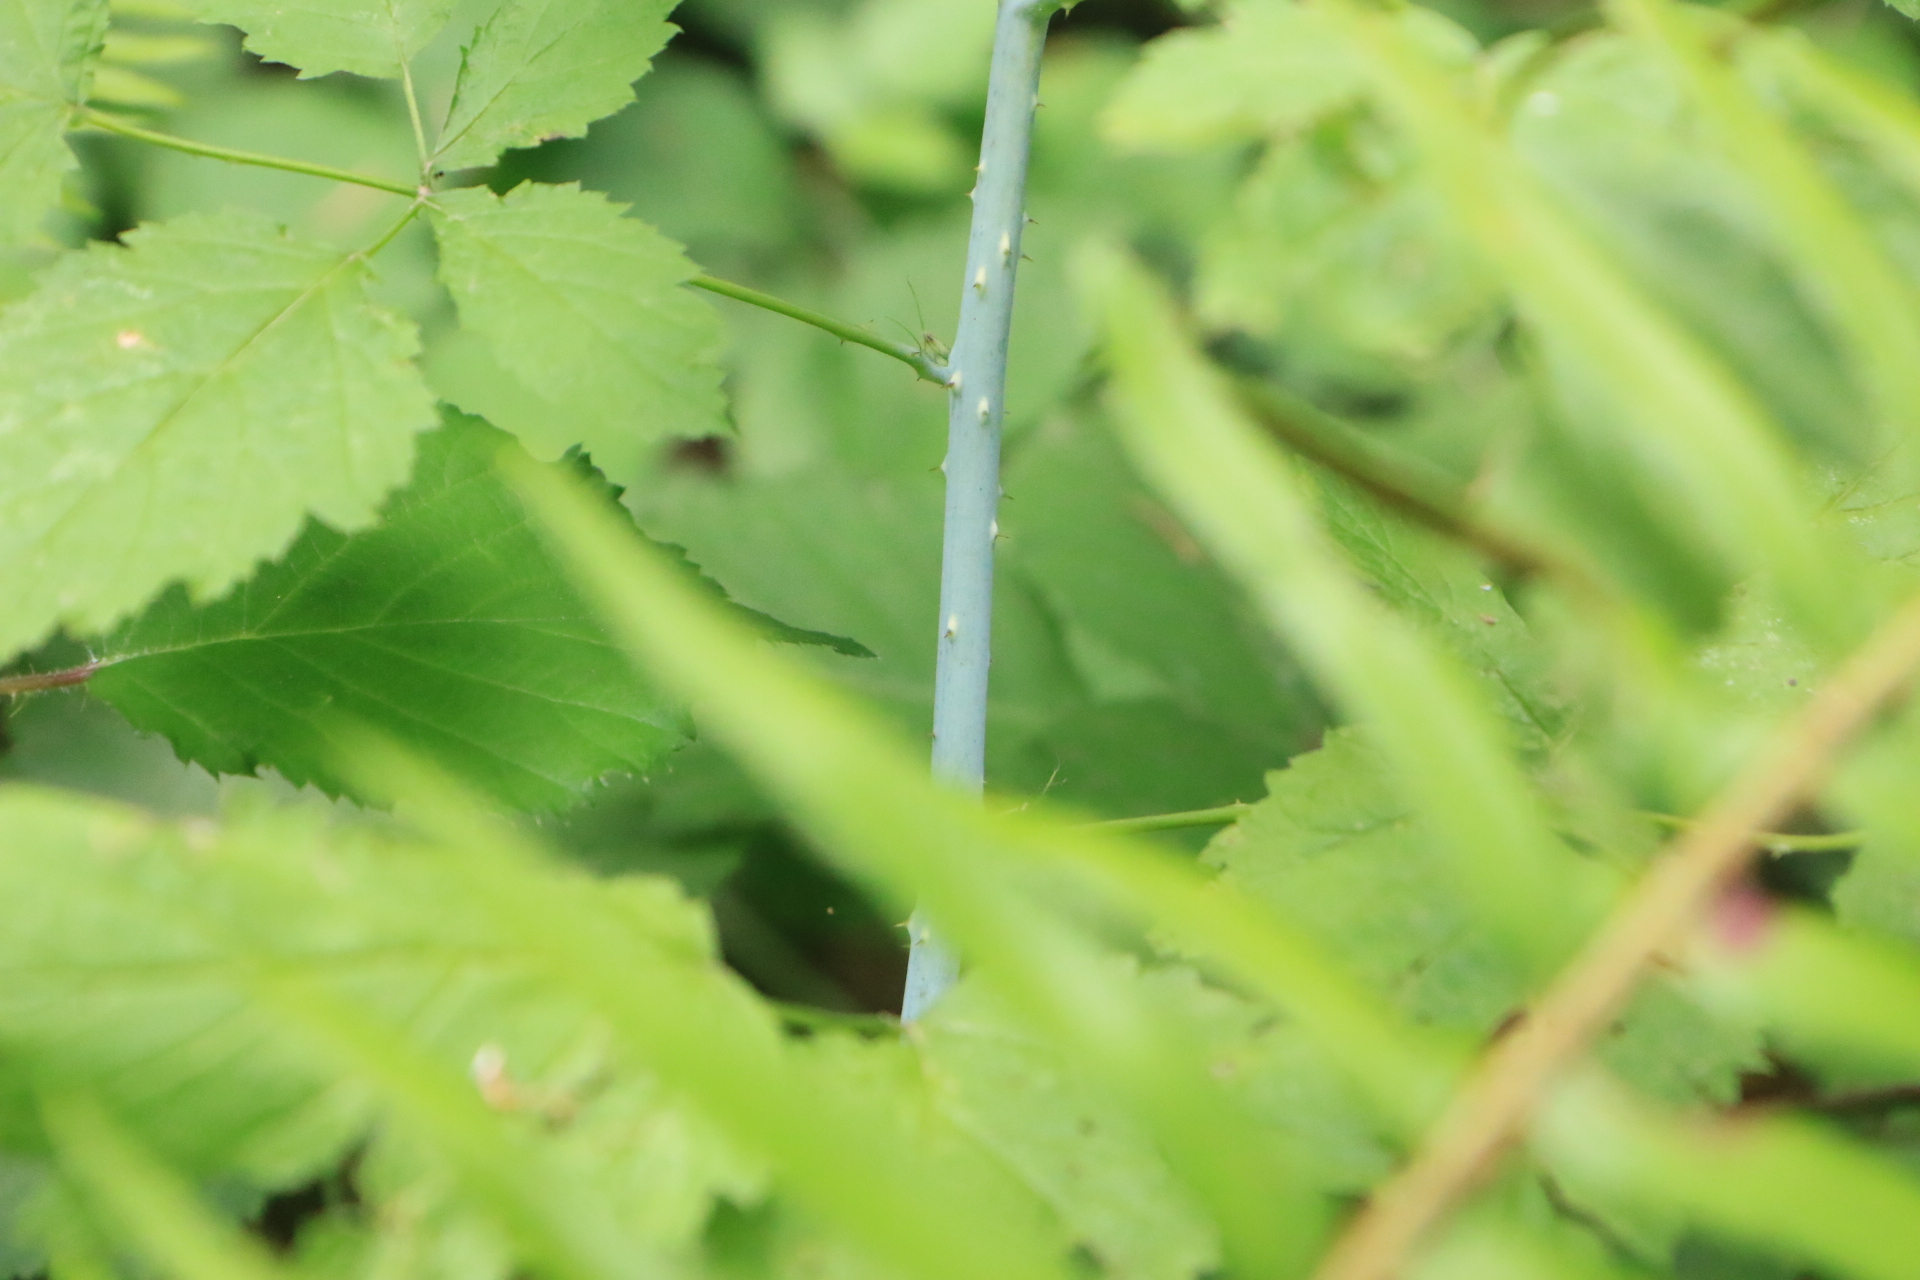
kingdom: Plantae
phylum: Tracheophyta
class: Magnoliopsida
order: Rosales
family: Rosaceae
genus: Rubus
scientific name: Rubus leucodermis
